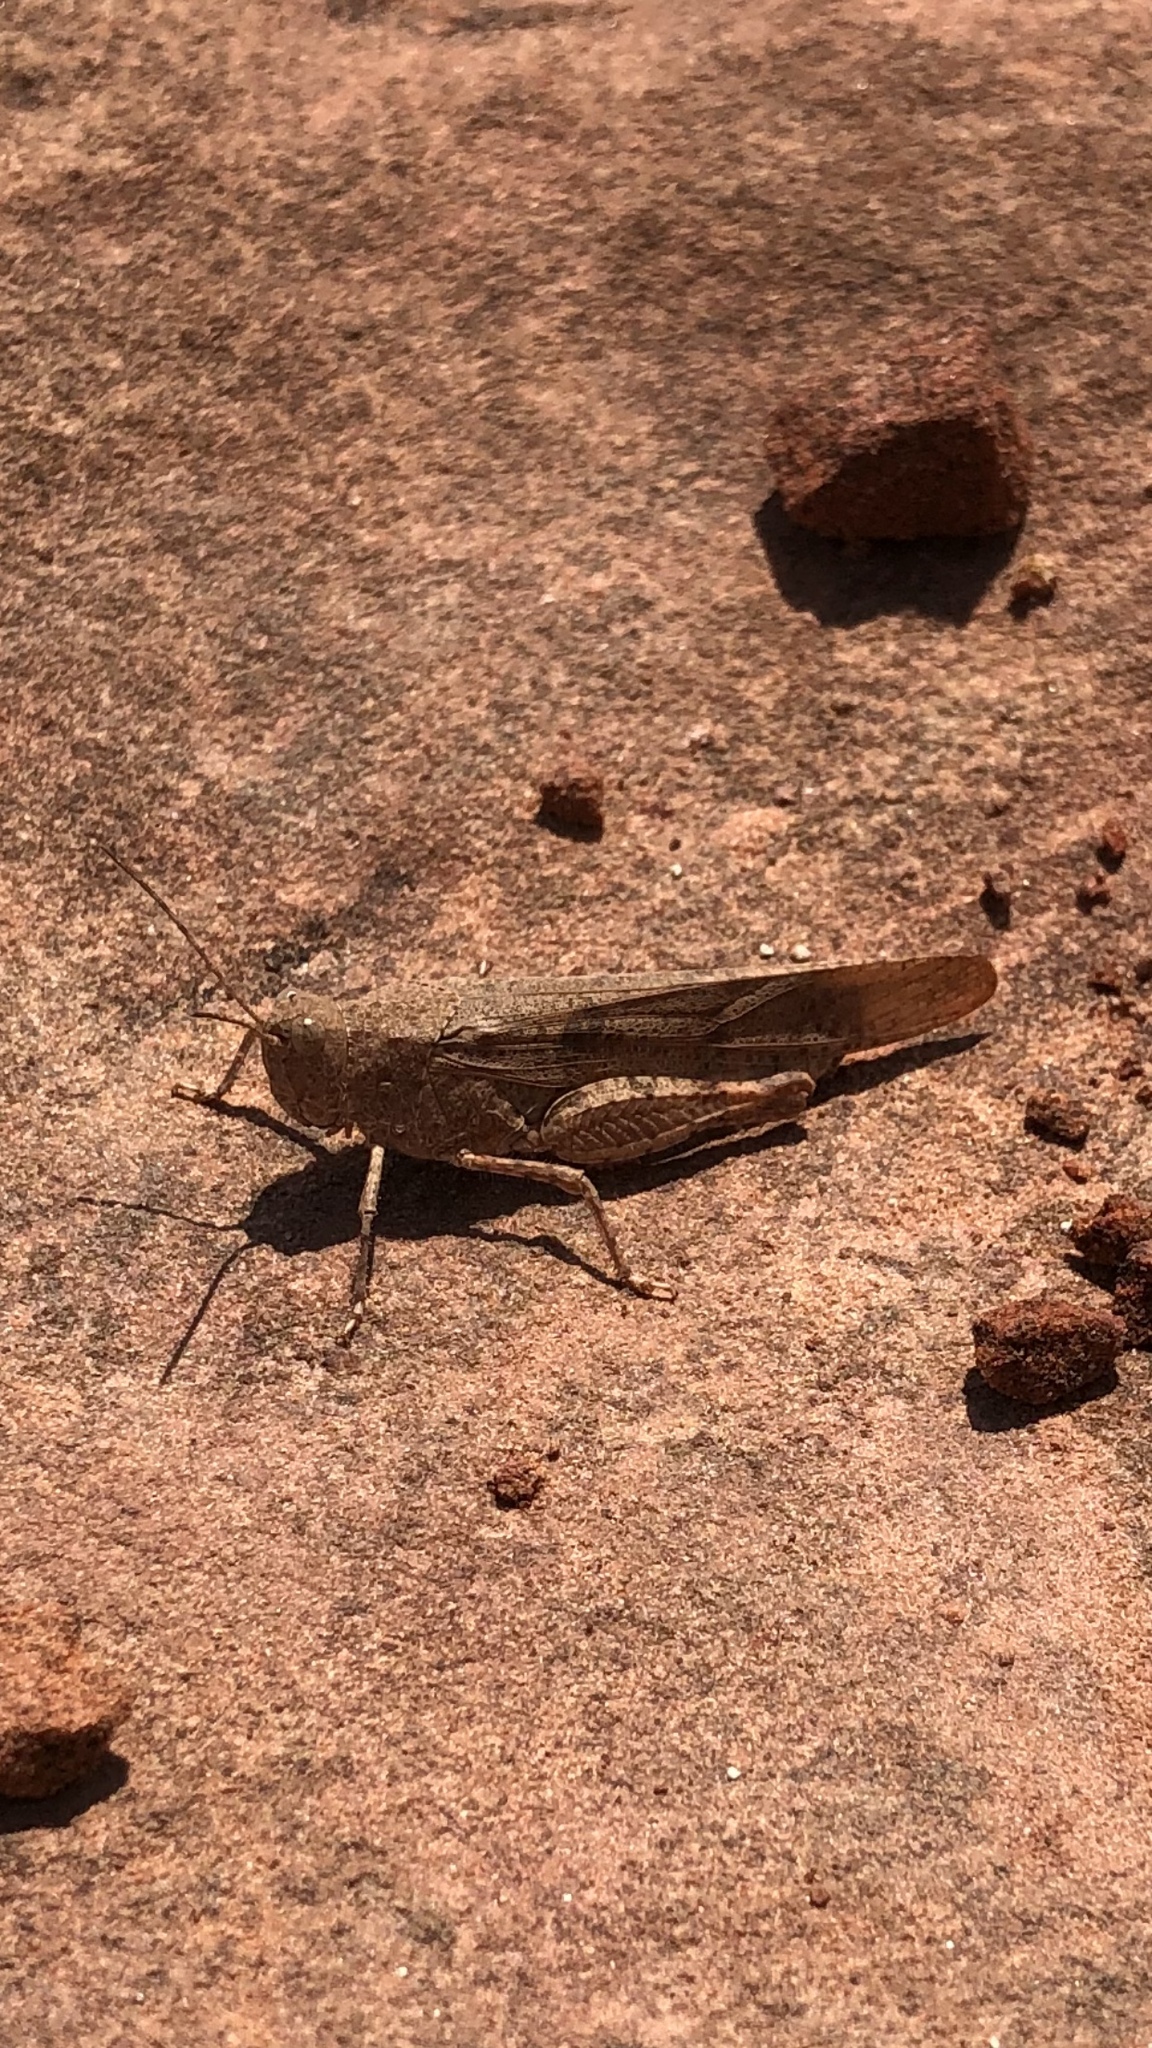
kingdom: Animalia
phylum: Arthropoda
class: Insecta
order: Orthoptera
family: Acrididae
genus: Trimerotropis
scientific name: Trimerotropis maritima
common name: Seaside locust
